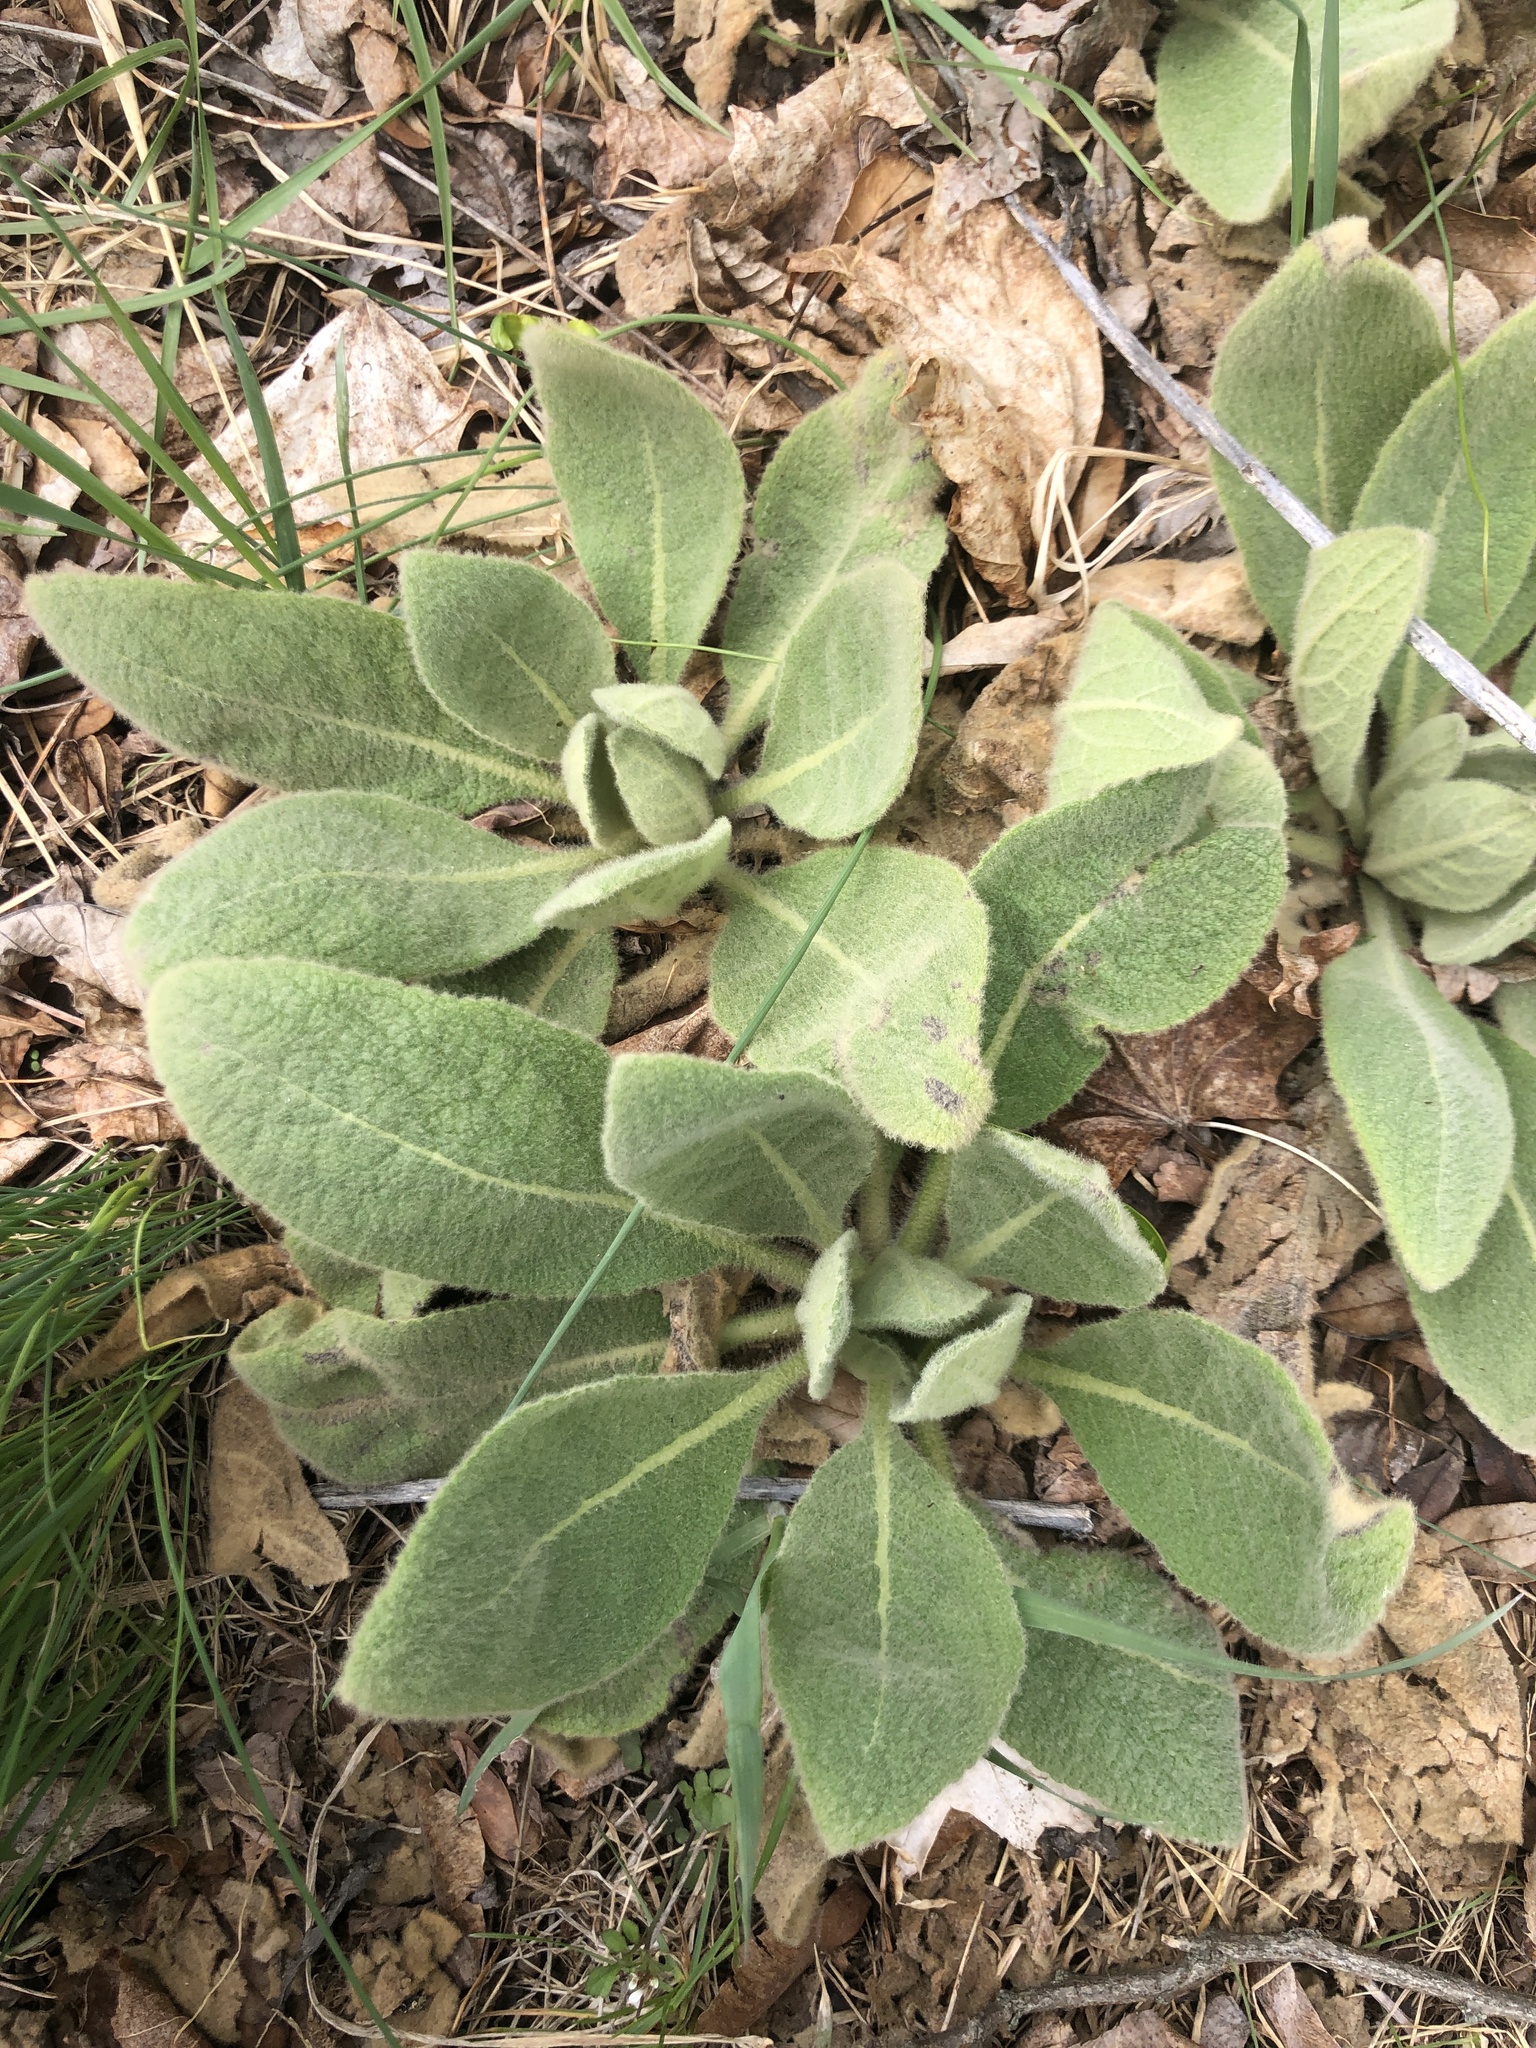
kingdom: Plantae
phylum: Tracheophyta
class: Magnoliopsida
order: Lamiales
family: Scrophulariaceae
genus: Verbascum
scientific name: Verbascum thapsus
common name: Common mullein
